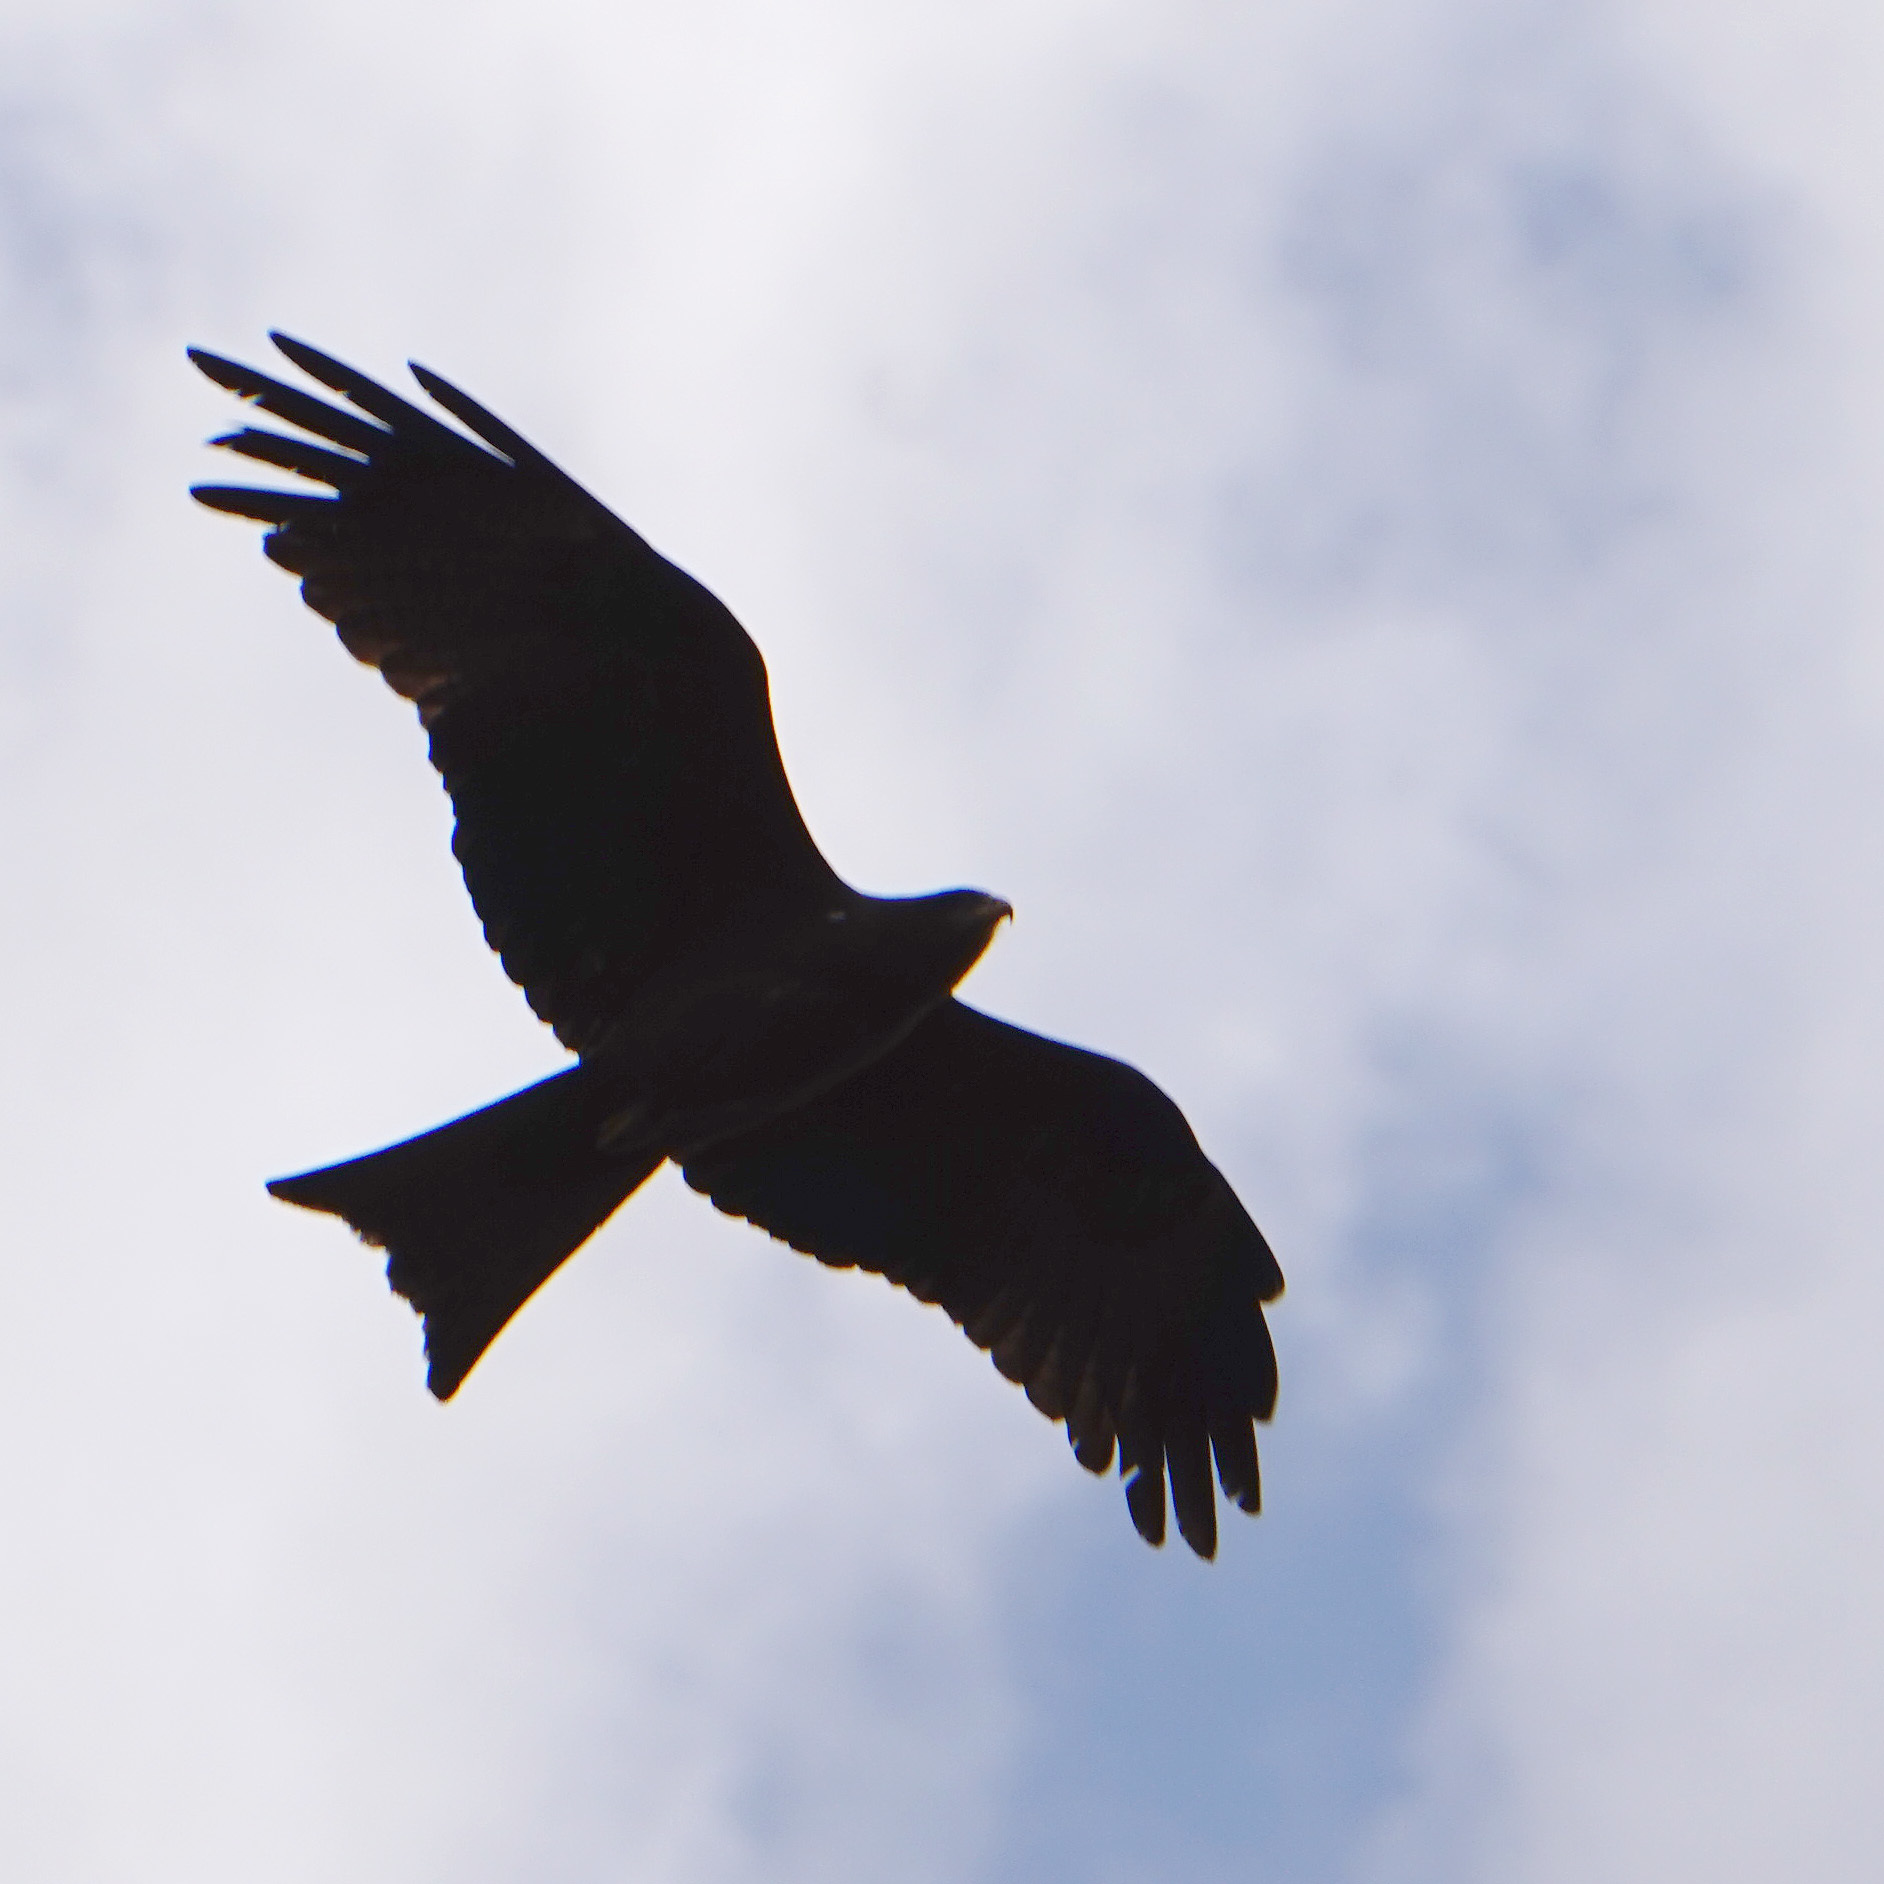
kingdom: Animalia
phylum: Chordata
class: Aves
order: Accipitriformes
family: Accipitridae
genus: Milvus
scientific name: Milvus migrans
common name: Black kite
